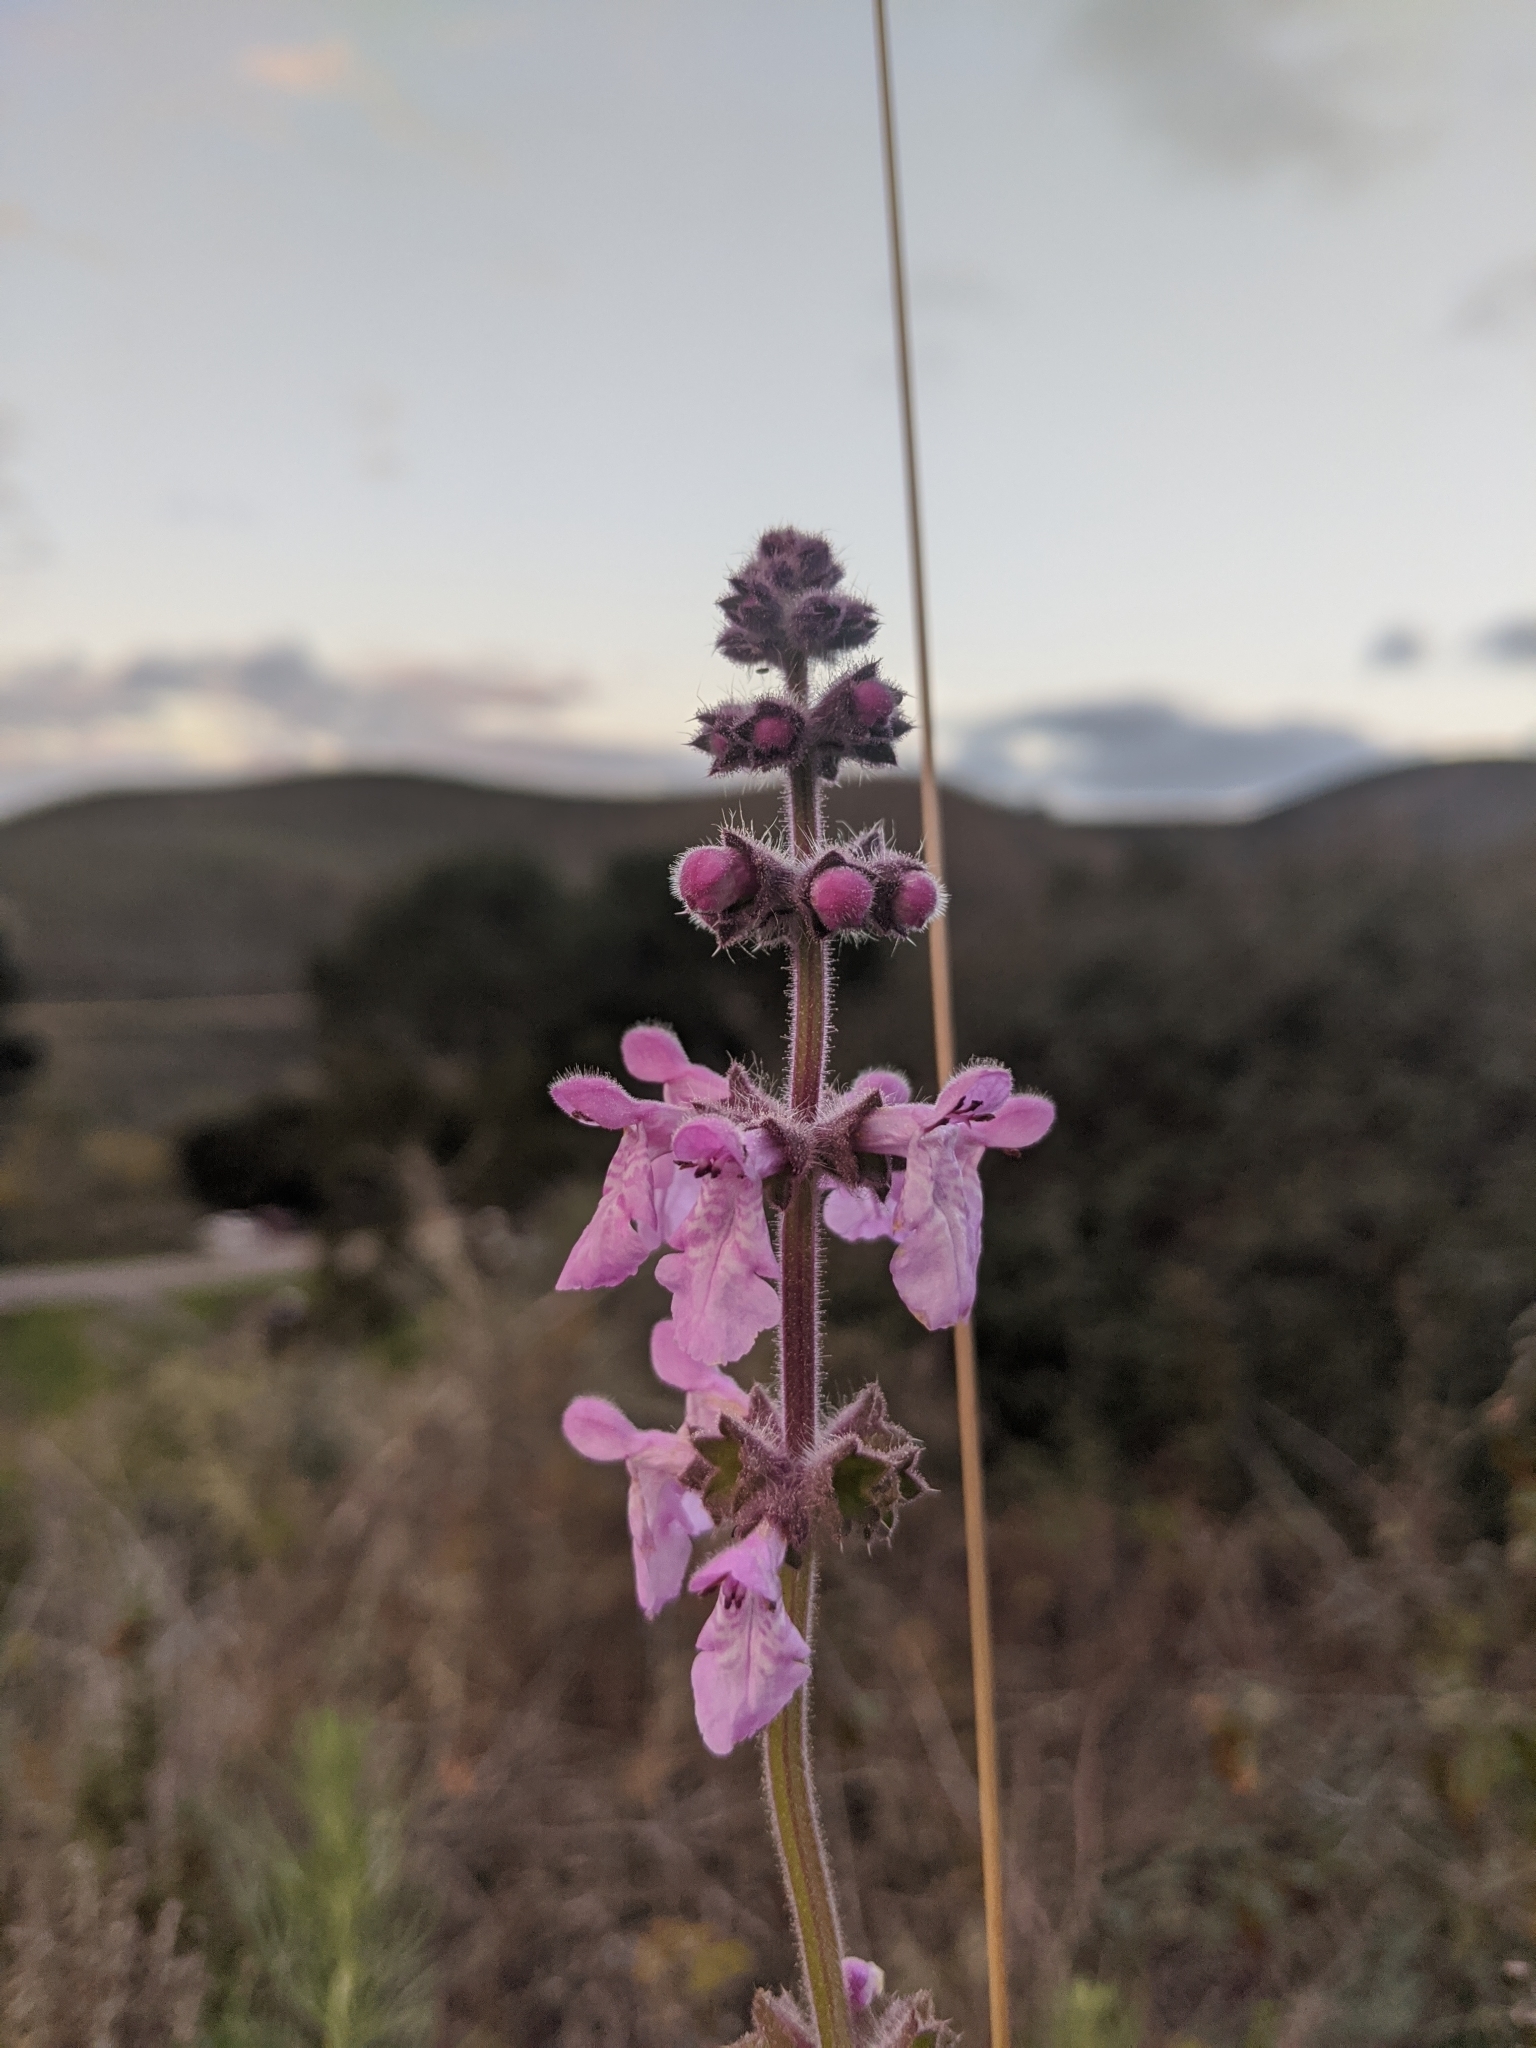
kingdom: Plantae
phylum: Tracheophyta
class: Magnoliopsida
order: Lamiales
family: Lamiaceae
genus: Stachys
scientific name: Stachys bullata
